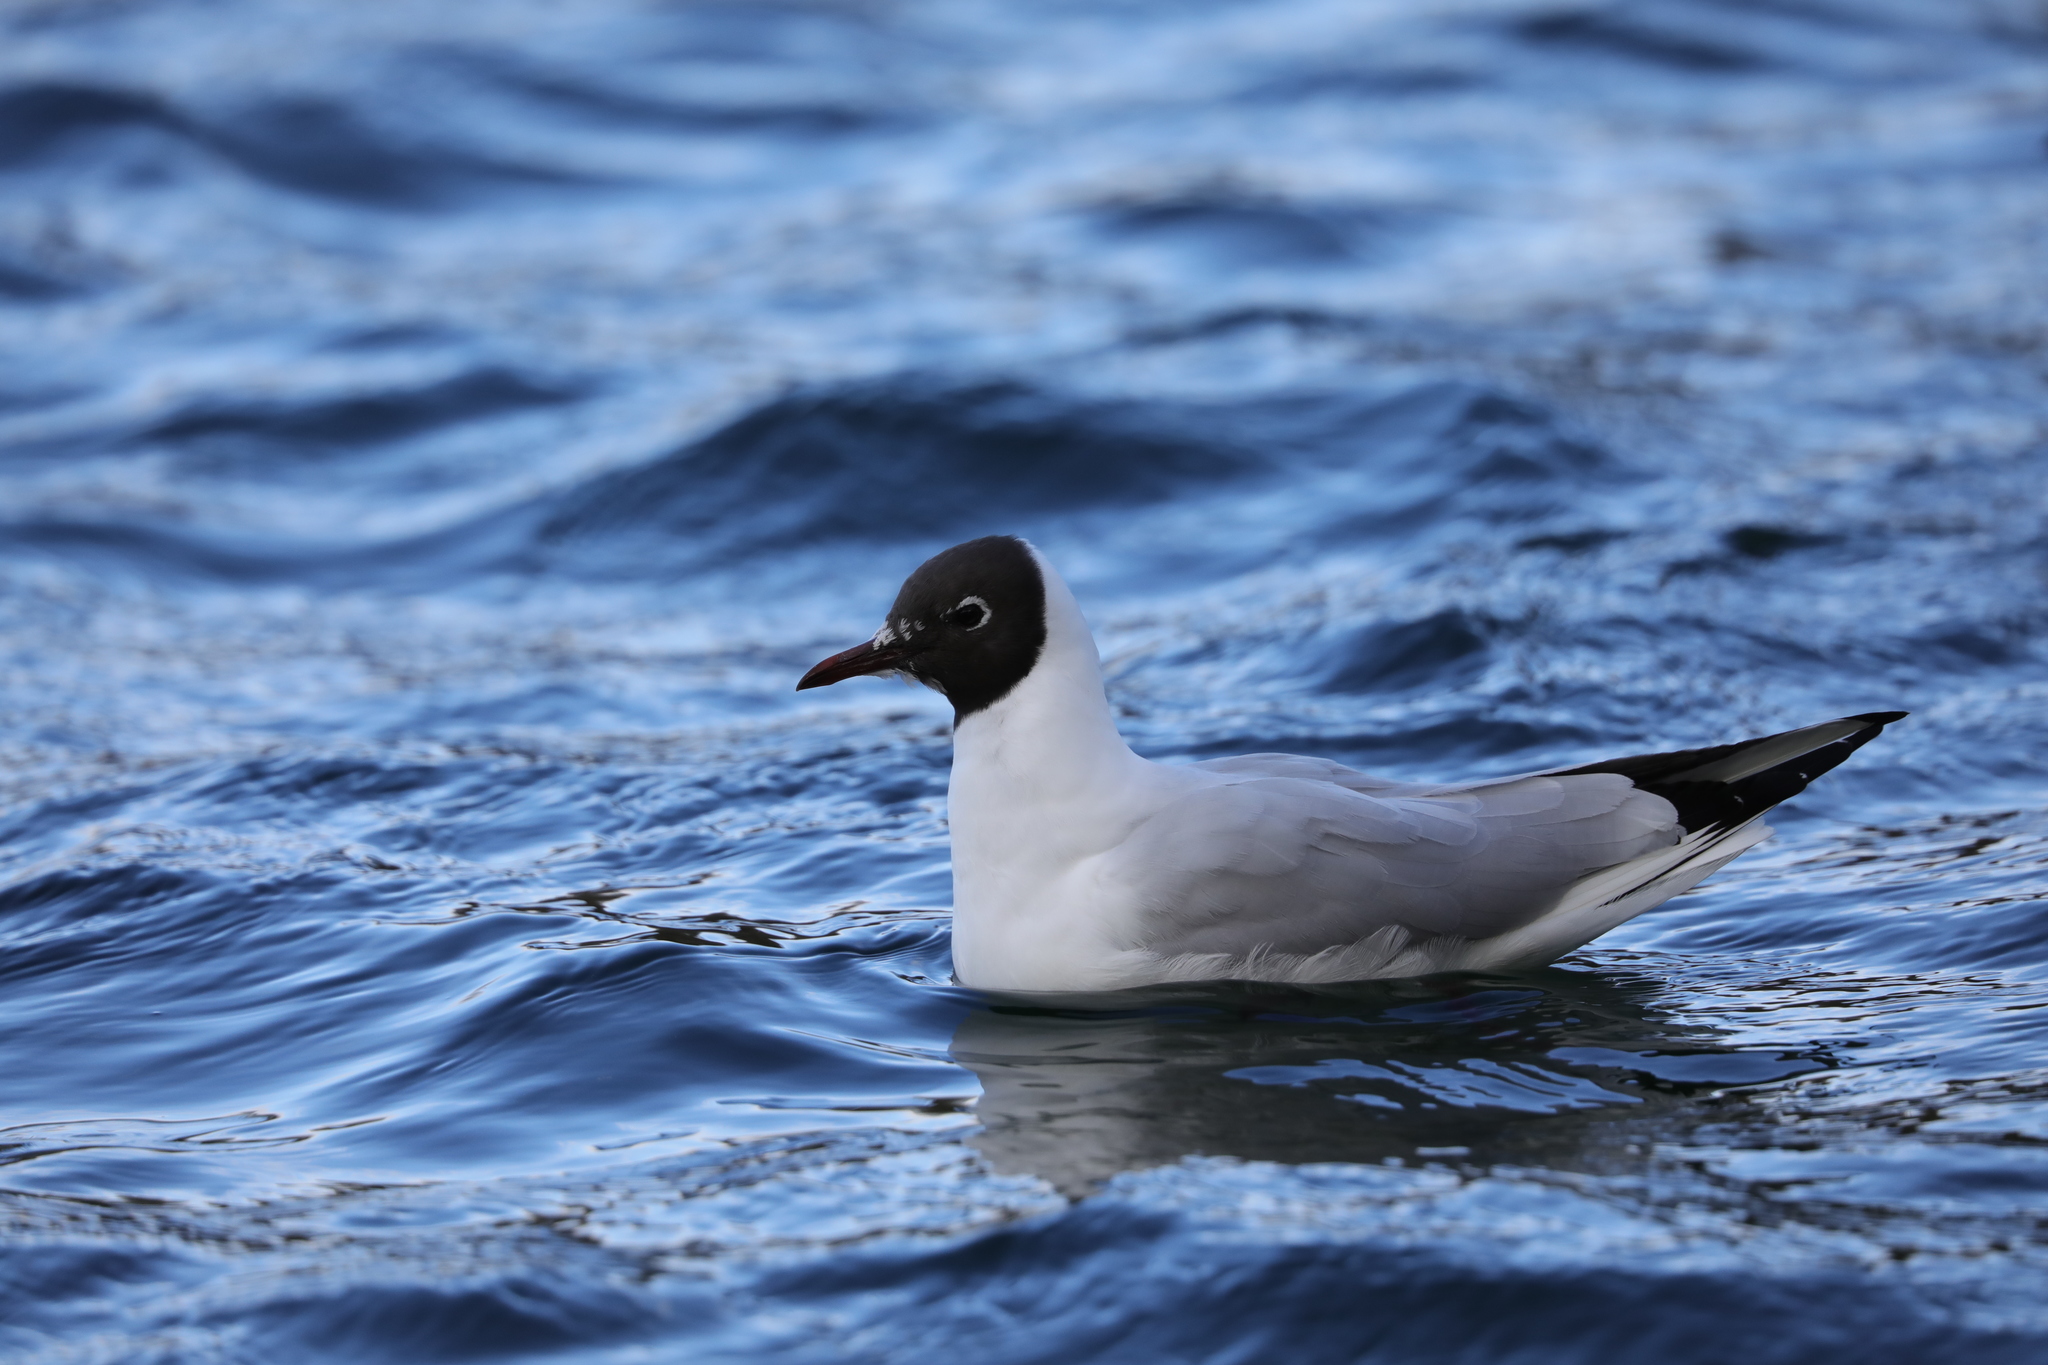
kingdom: Animalia
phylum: Chordata
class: Aves
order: Charadriiformes
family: Laridae
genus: Chroicocephalus
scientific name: Chroicocephalus ridibundus
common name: Black-headed gull
